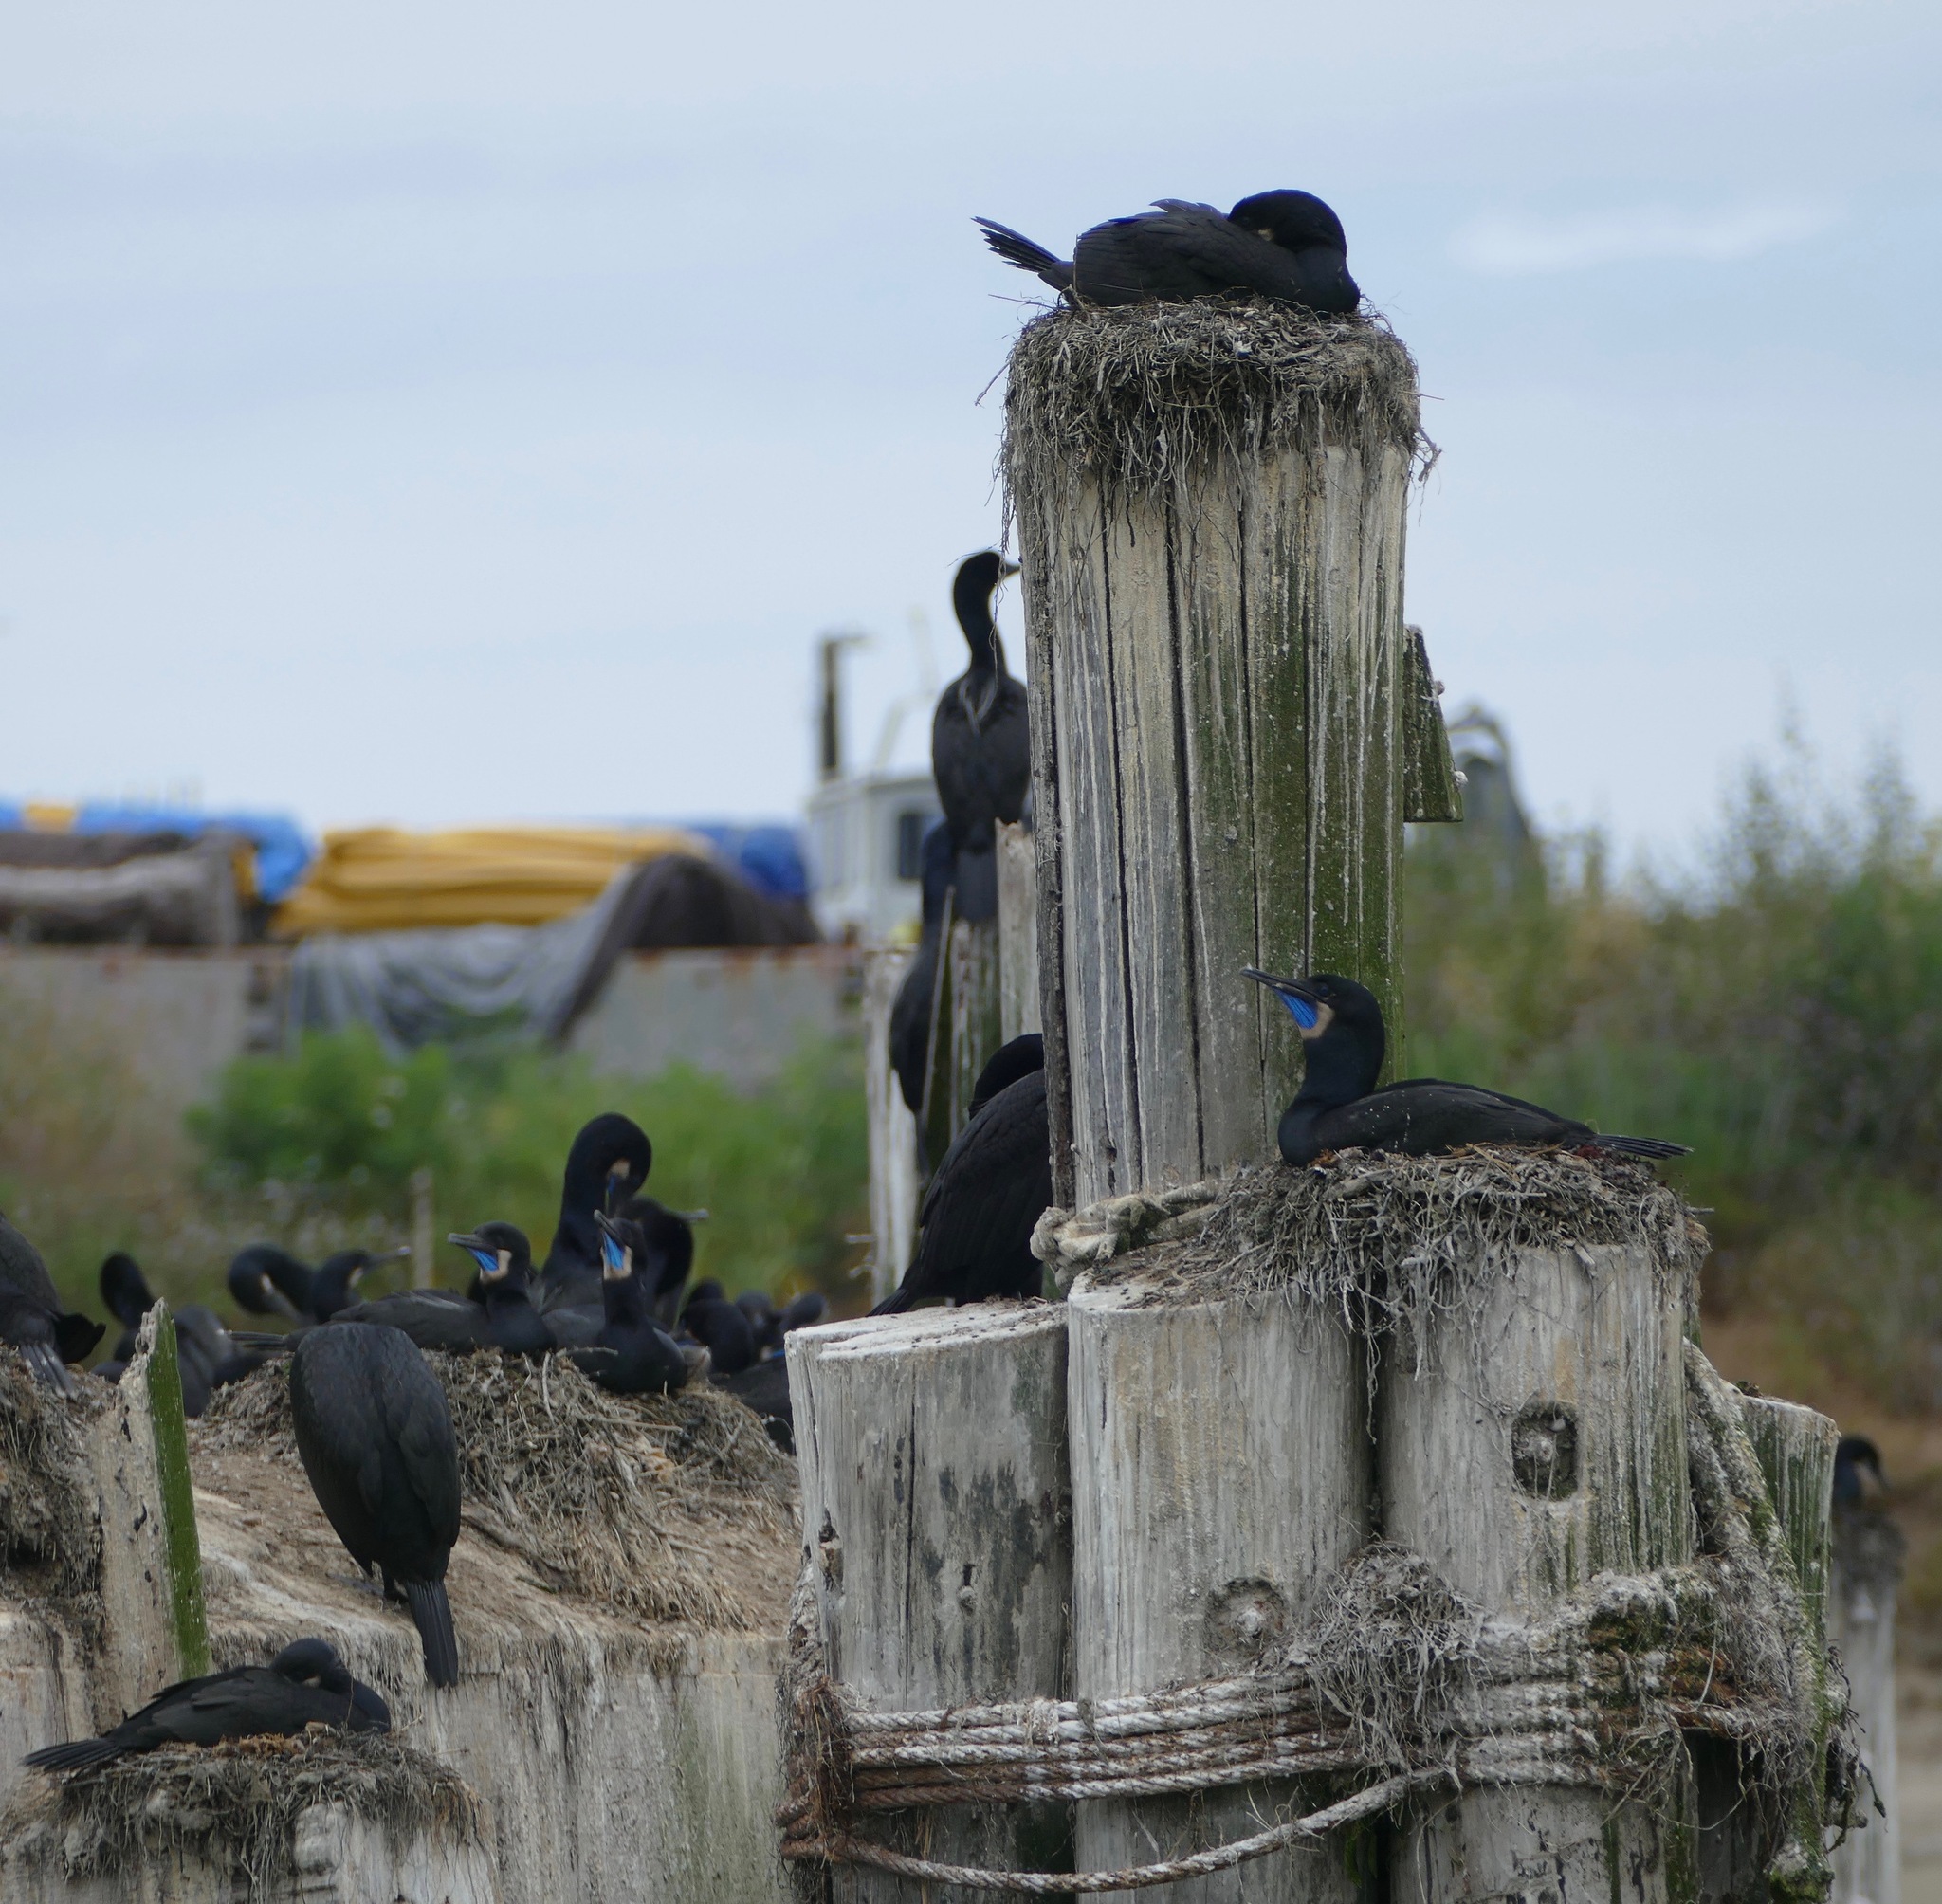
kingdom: Animalia
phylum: Chordata
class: Aves
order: Suliformes
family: Phalacrocoracidae
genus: Urile
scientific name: Urile penicillatus
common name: Brandt's cormorant
